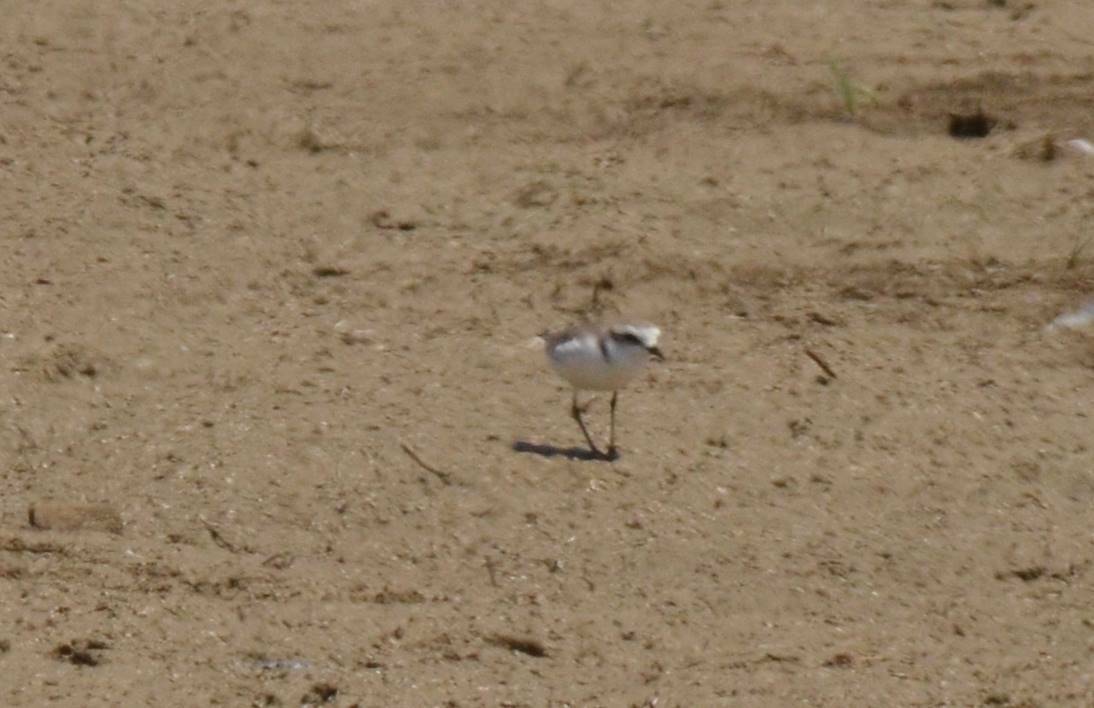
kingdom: Animalia
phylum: Chordata
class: Aves
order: Charadriiformes
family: Charadriidae
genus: Charadrius
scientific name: Charadrius alexandrinus
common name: Kentish plover
